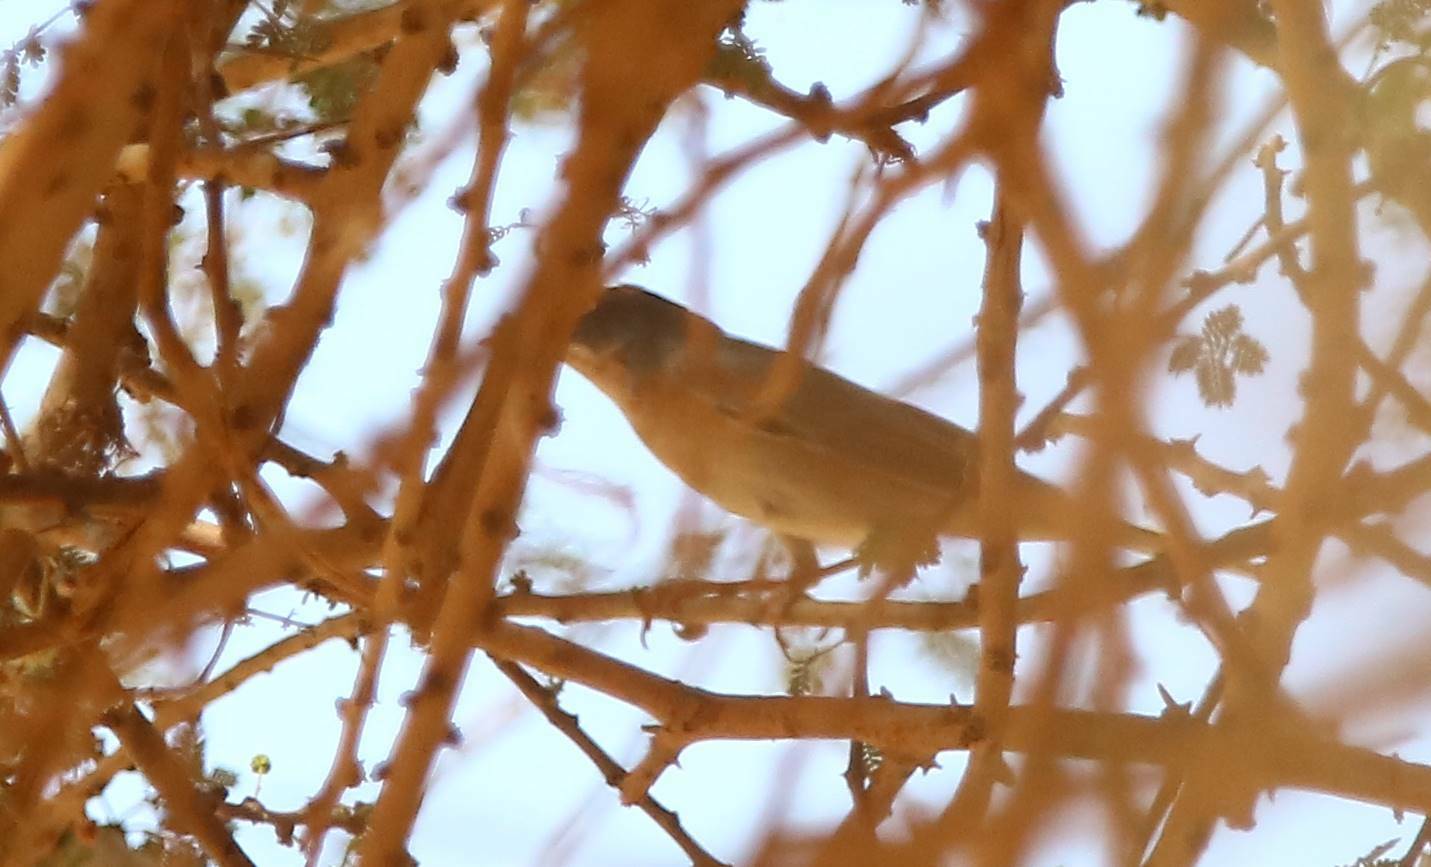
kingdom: Animalia
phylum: Chordata
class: Aves
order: Passeriformes
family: Sylviidae
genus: Curruca
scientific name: Curruca melanocephala
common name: Sardinian warbler
